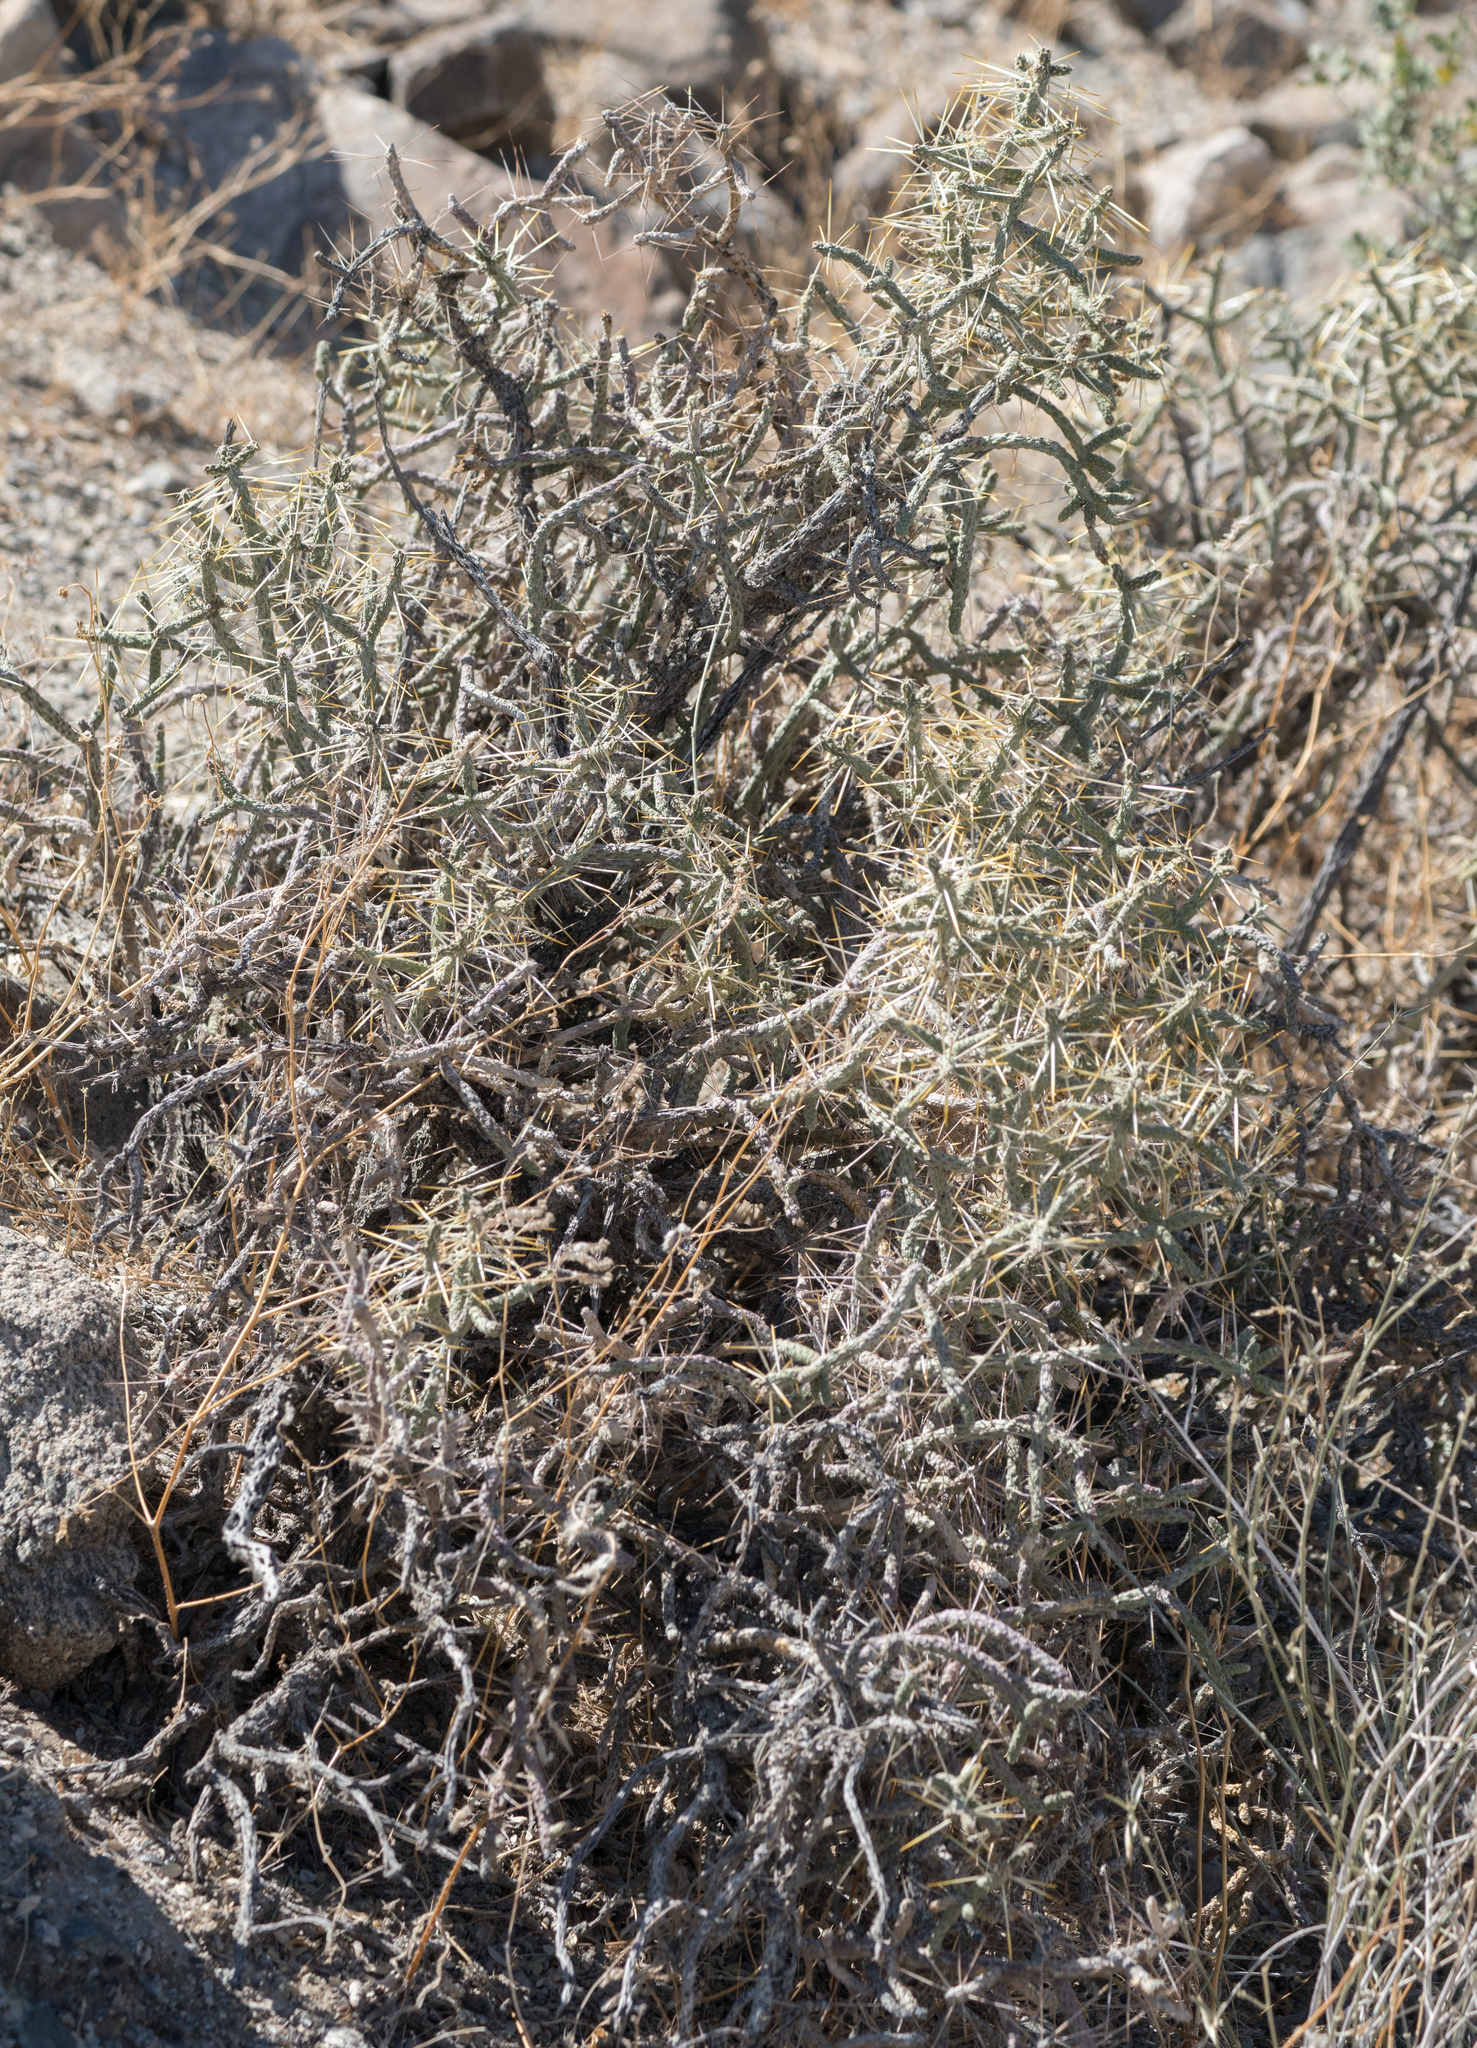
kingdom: Plantae
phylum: Tracheophyta
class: Magnoliopsida
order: Caryophyllales
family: Cactaceae
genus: Cylindropuntia
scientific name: Cylindropuntia ramosissima
